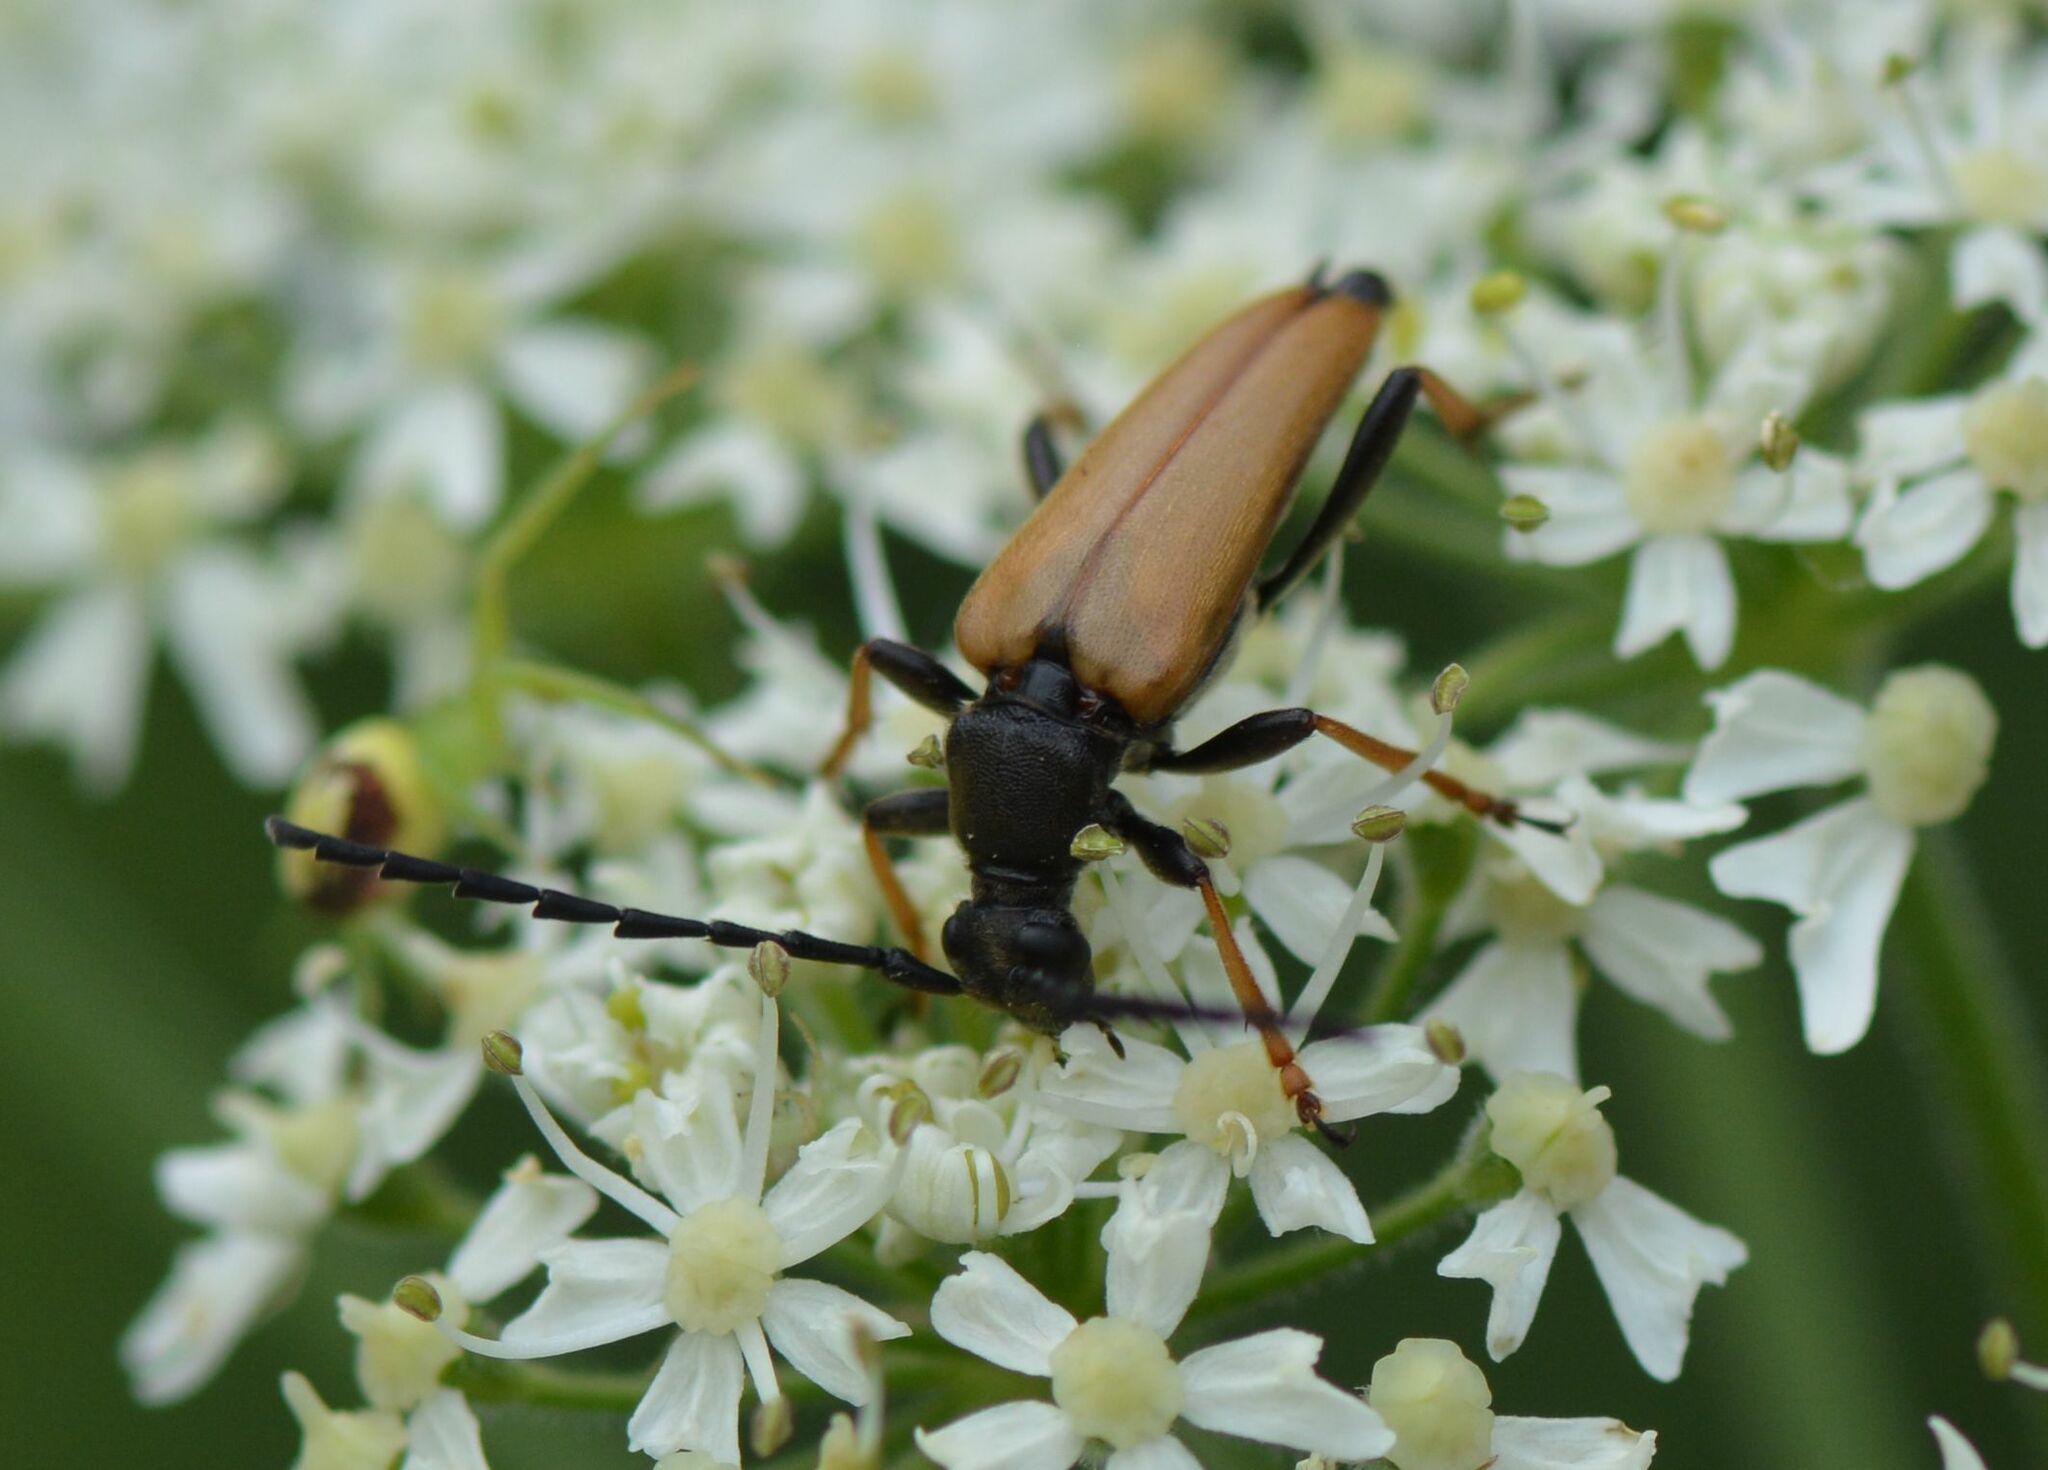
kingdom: Animalia
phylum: Arthropoda
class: Insecta
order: Coleoptera
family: Cerambycidae
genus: Stictoleptura
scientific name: Stictoleptura rubra
